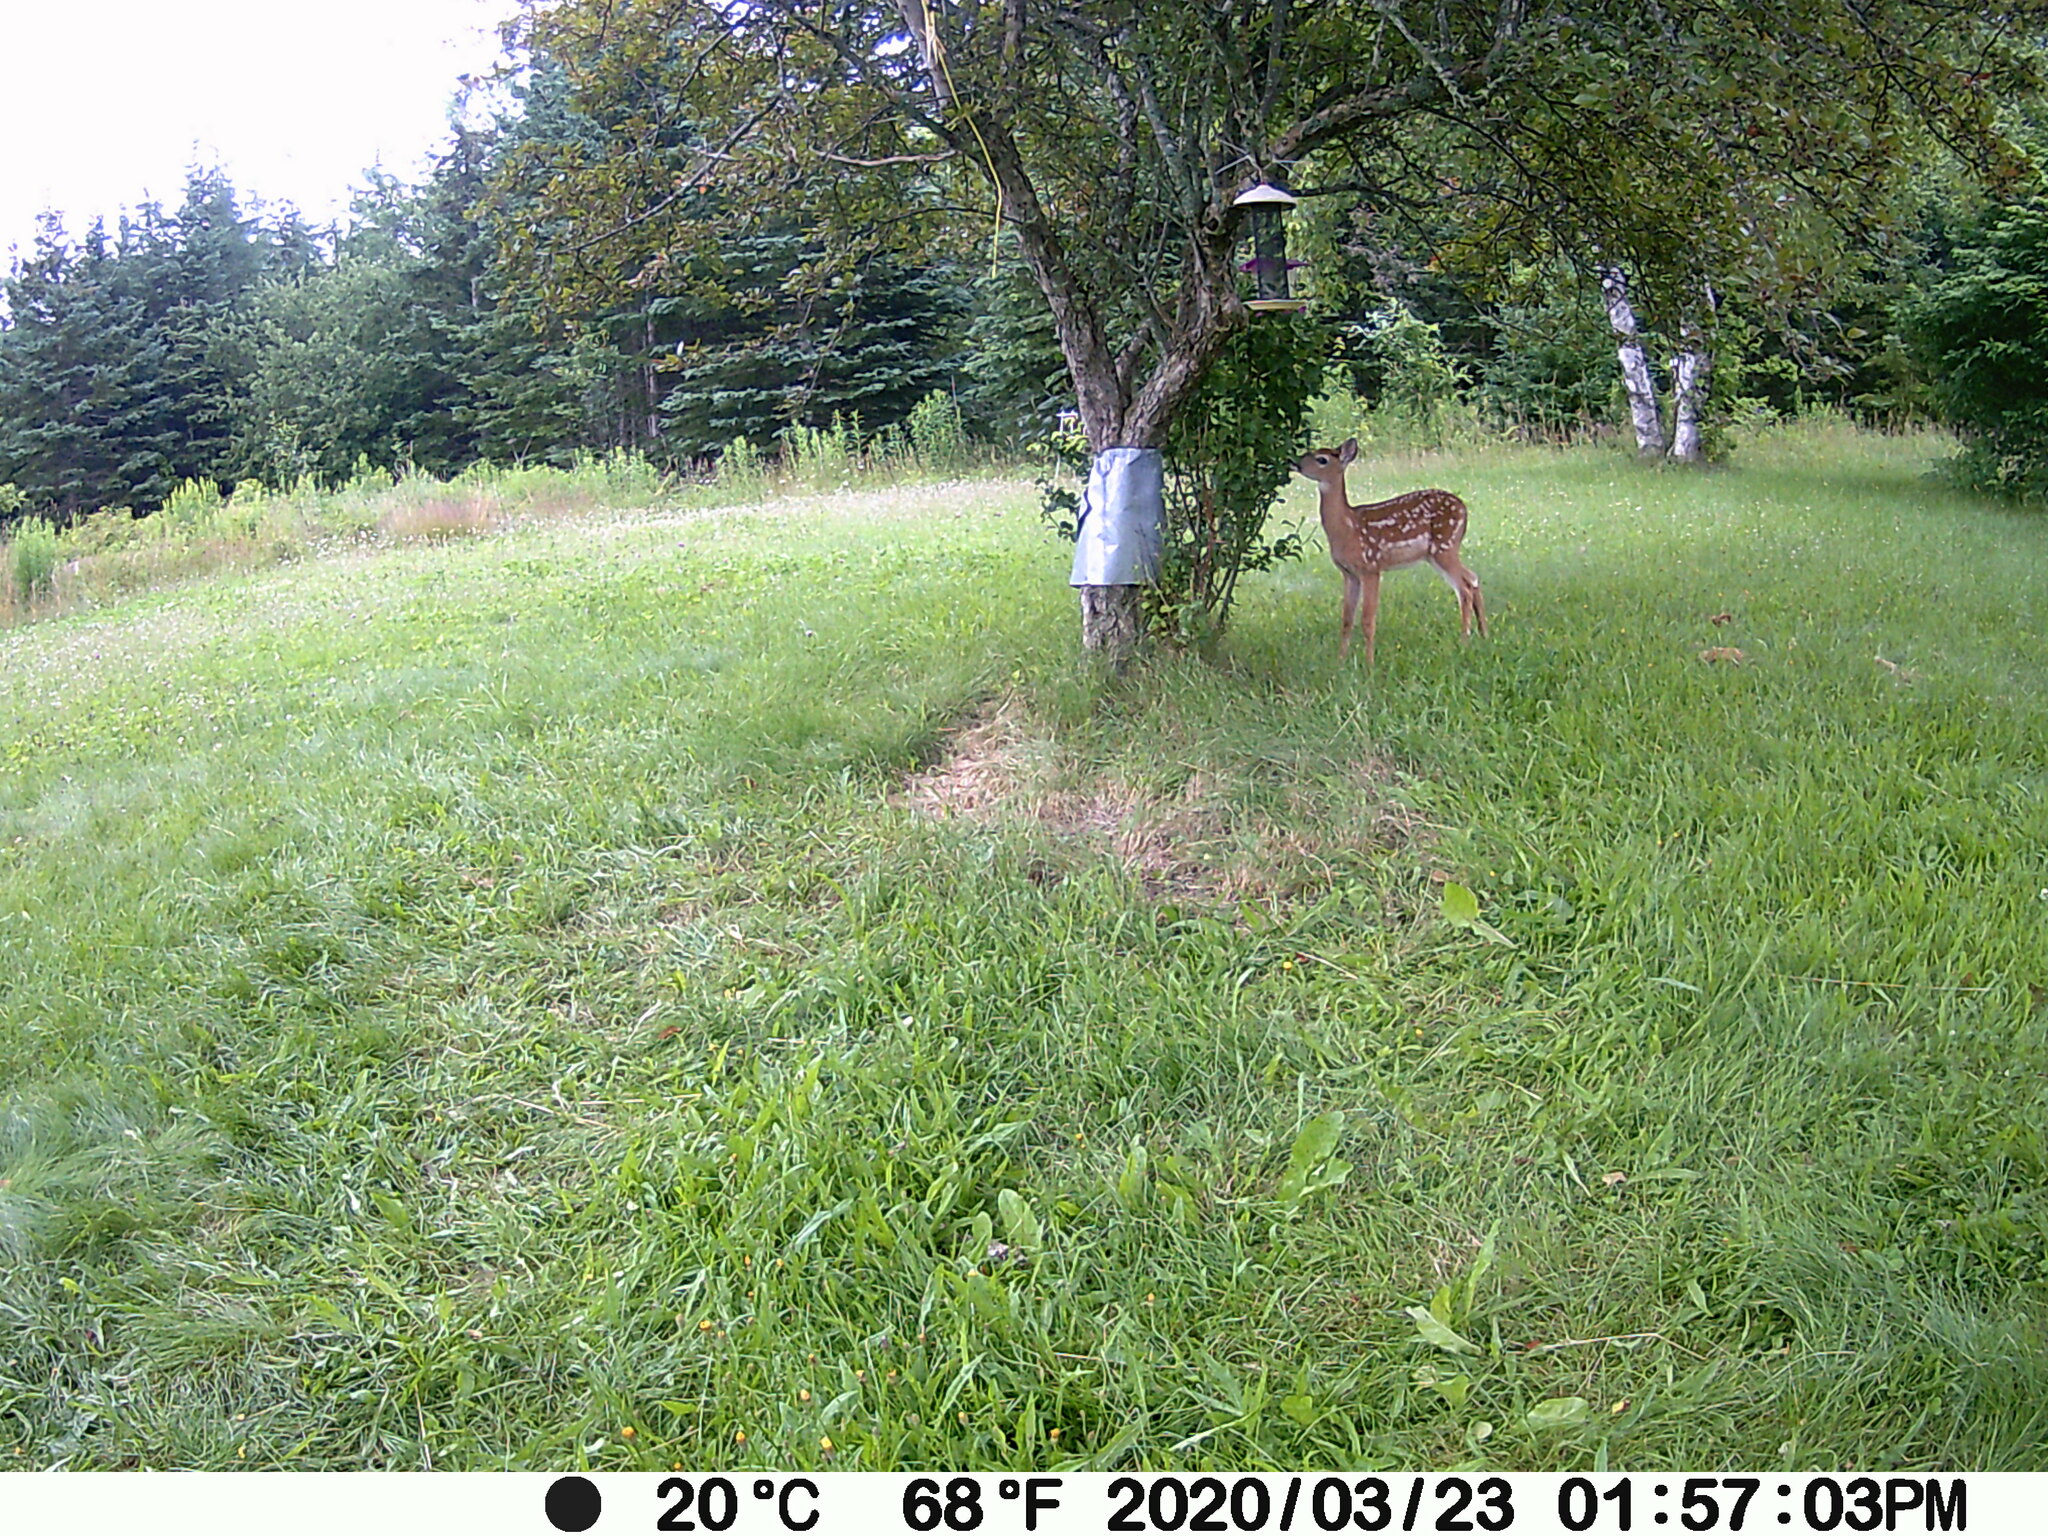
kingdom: Animalia
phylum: Chordata
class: Mammalia
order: Artiodactyla
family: Cervidae
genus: Odocoileus
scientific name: Odocoileus virginianus
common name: White-tailed deer
